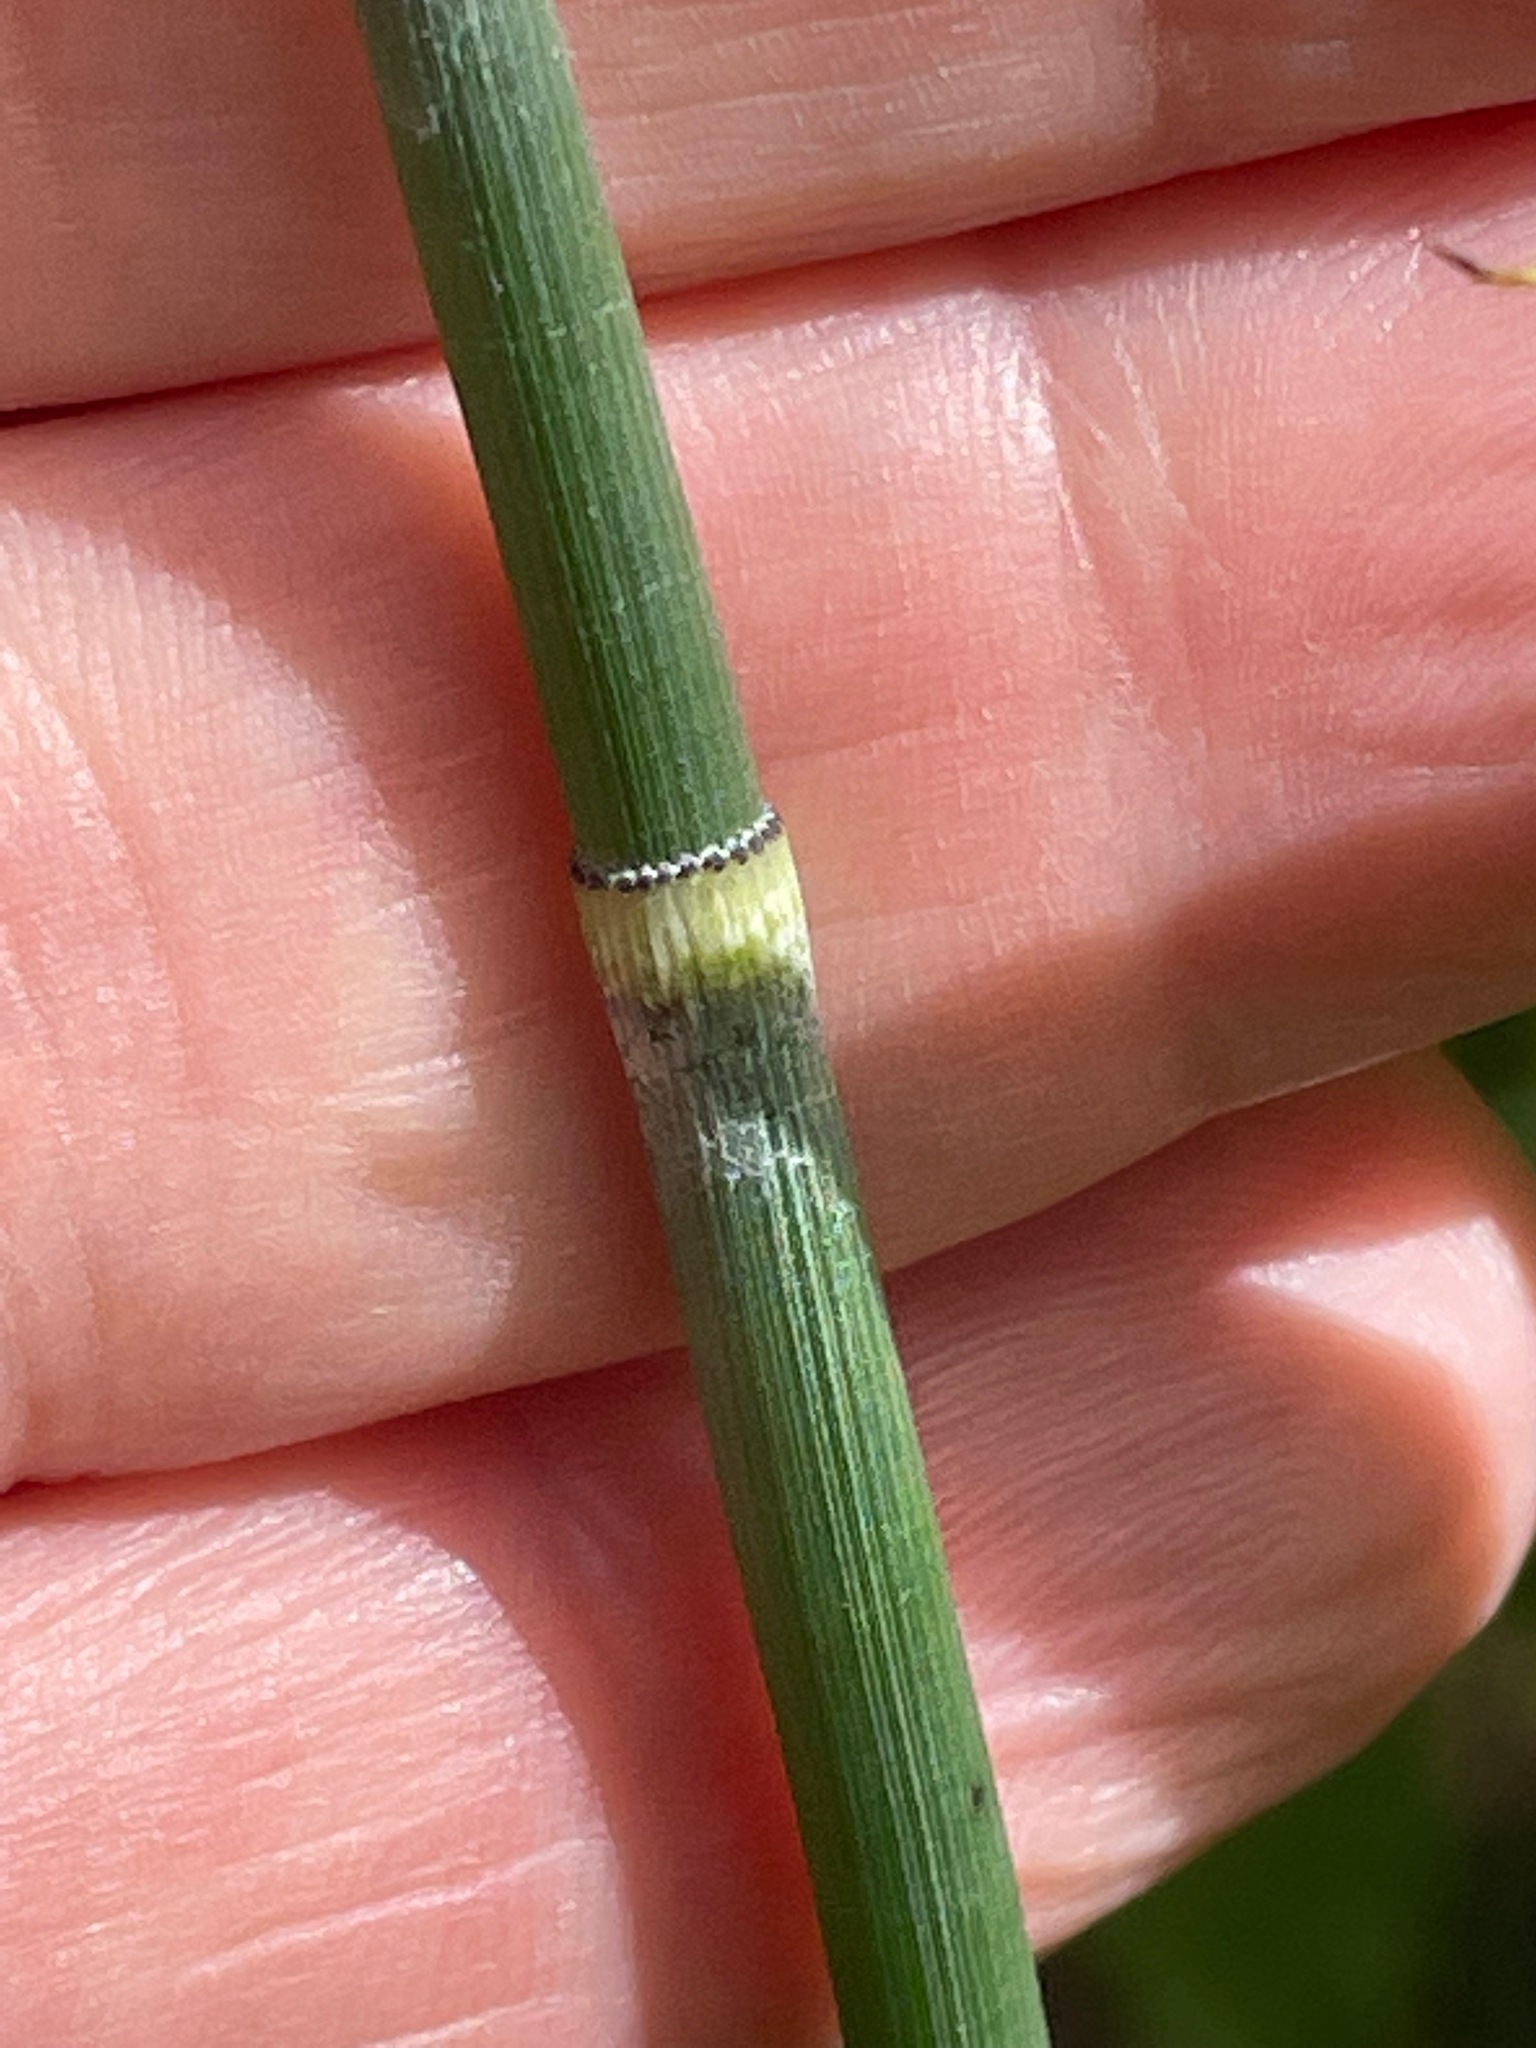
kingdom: Plantae
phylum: Tracheophyta
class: Polypodiopsida
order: Equisetales
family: Equisetaceae
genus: Equisetum
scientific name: Equisetum hyemale
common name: Rough horsetail
